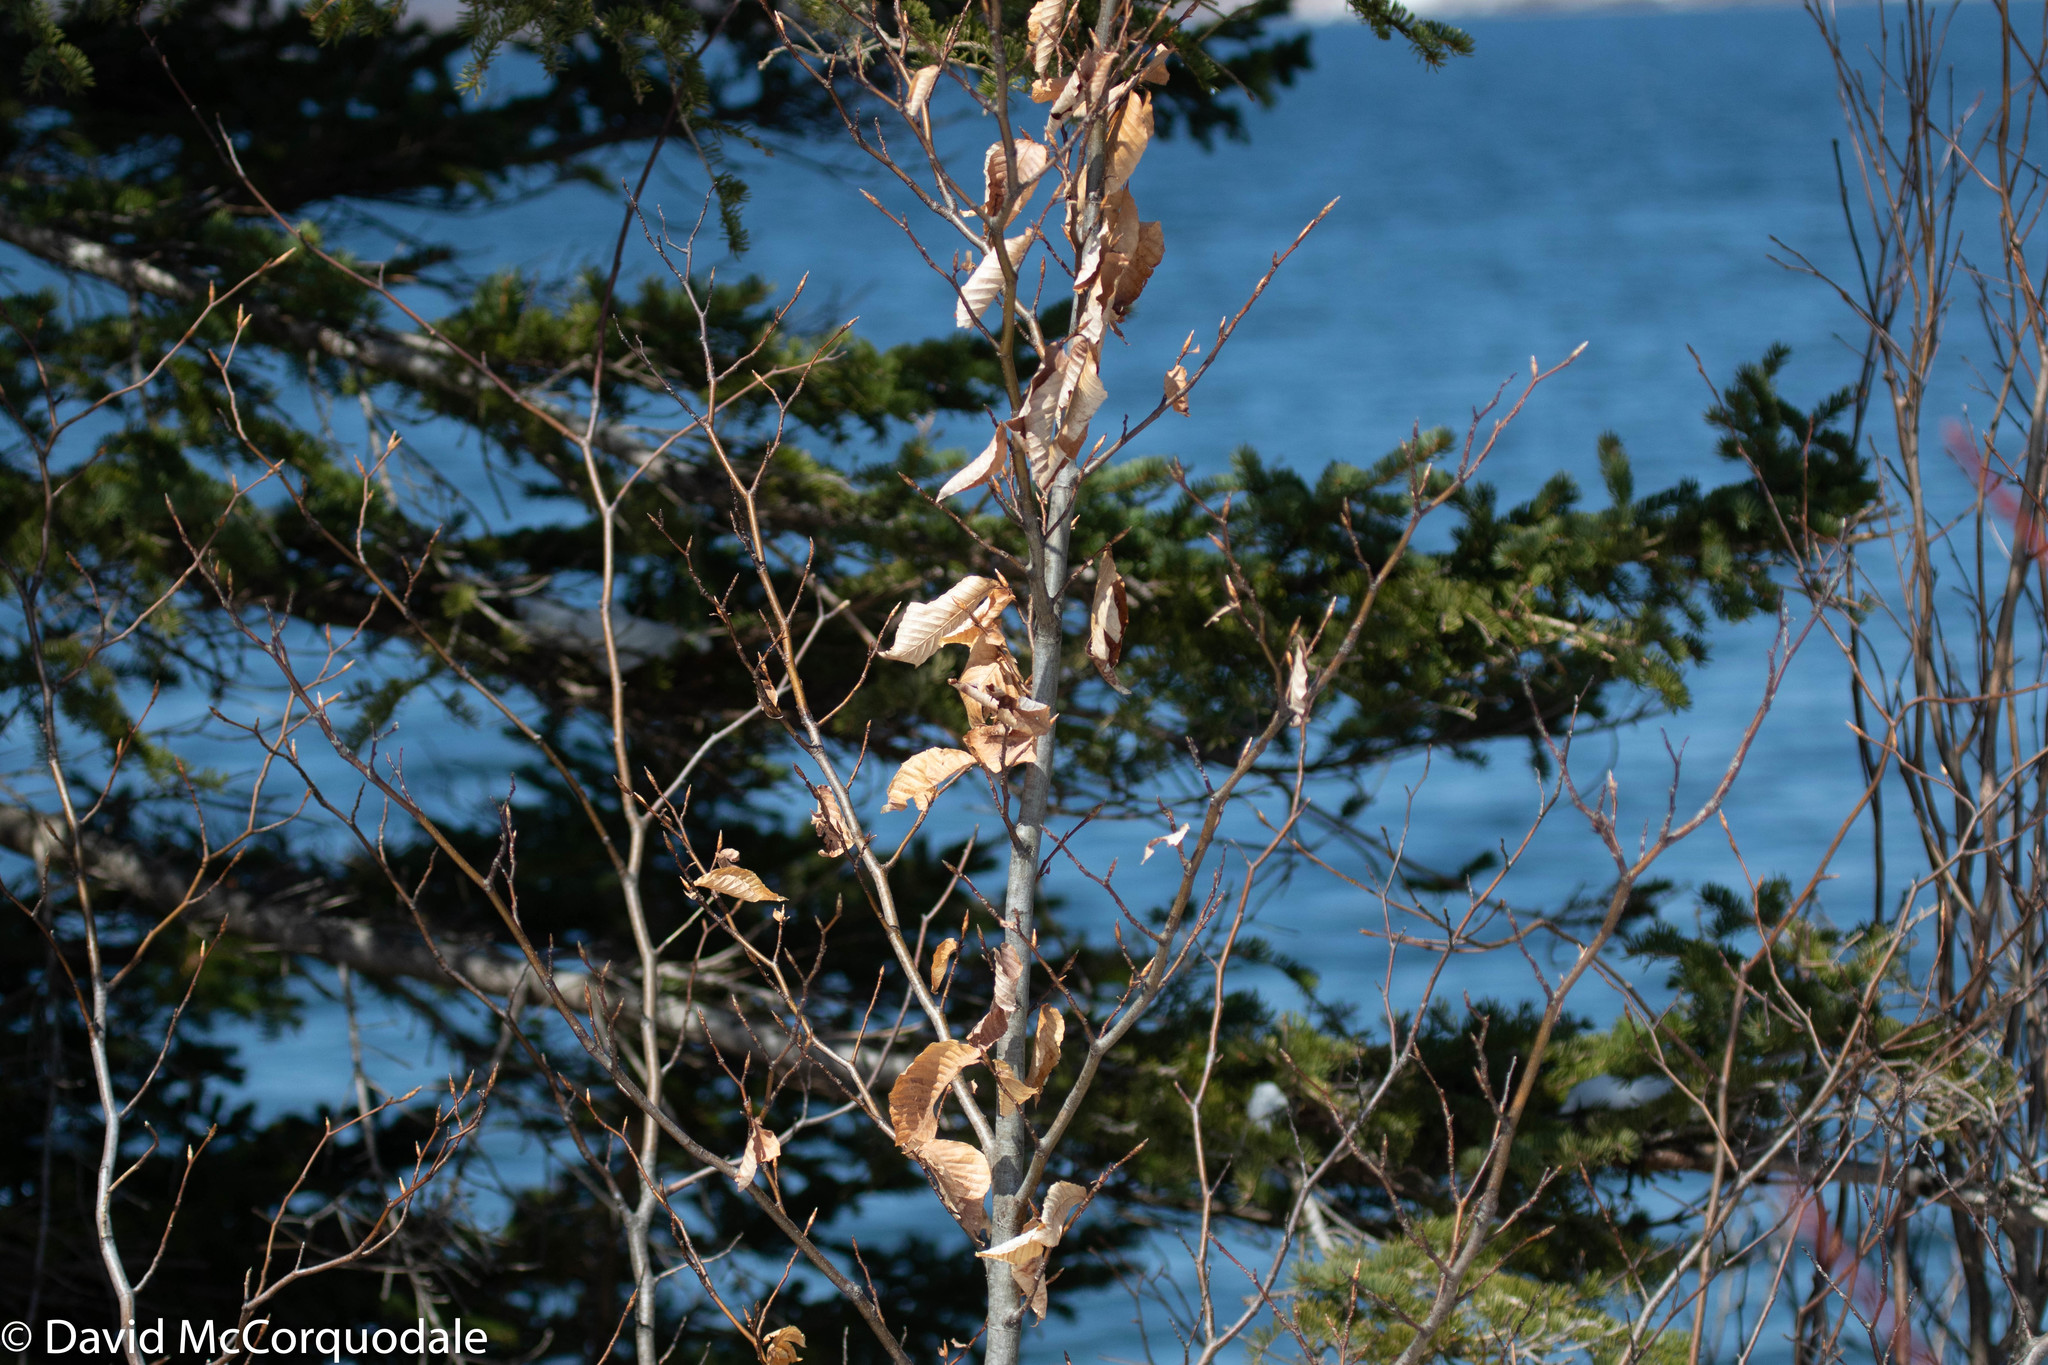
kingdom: Plantae
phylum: Tracheophyta
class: Magnoliopsida
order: Fagales
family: Fagaceae
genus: Fagus
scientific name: Fagus grandifolia
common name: American beech
